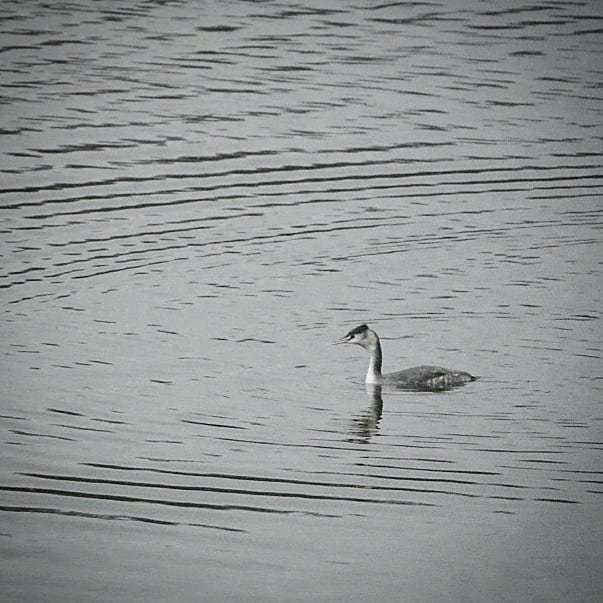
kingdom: Animalia
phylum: Chordata
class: Aves
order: Podicipediformes
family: Podicipedidae
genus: Podiceps
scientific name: Podiceps cristatus
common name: Great crested grebe
